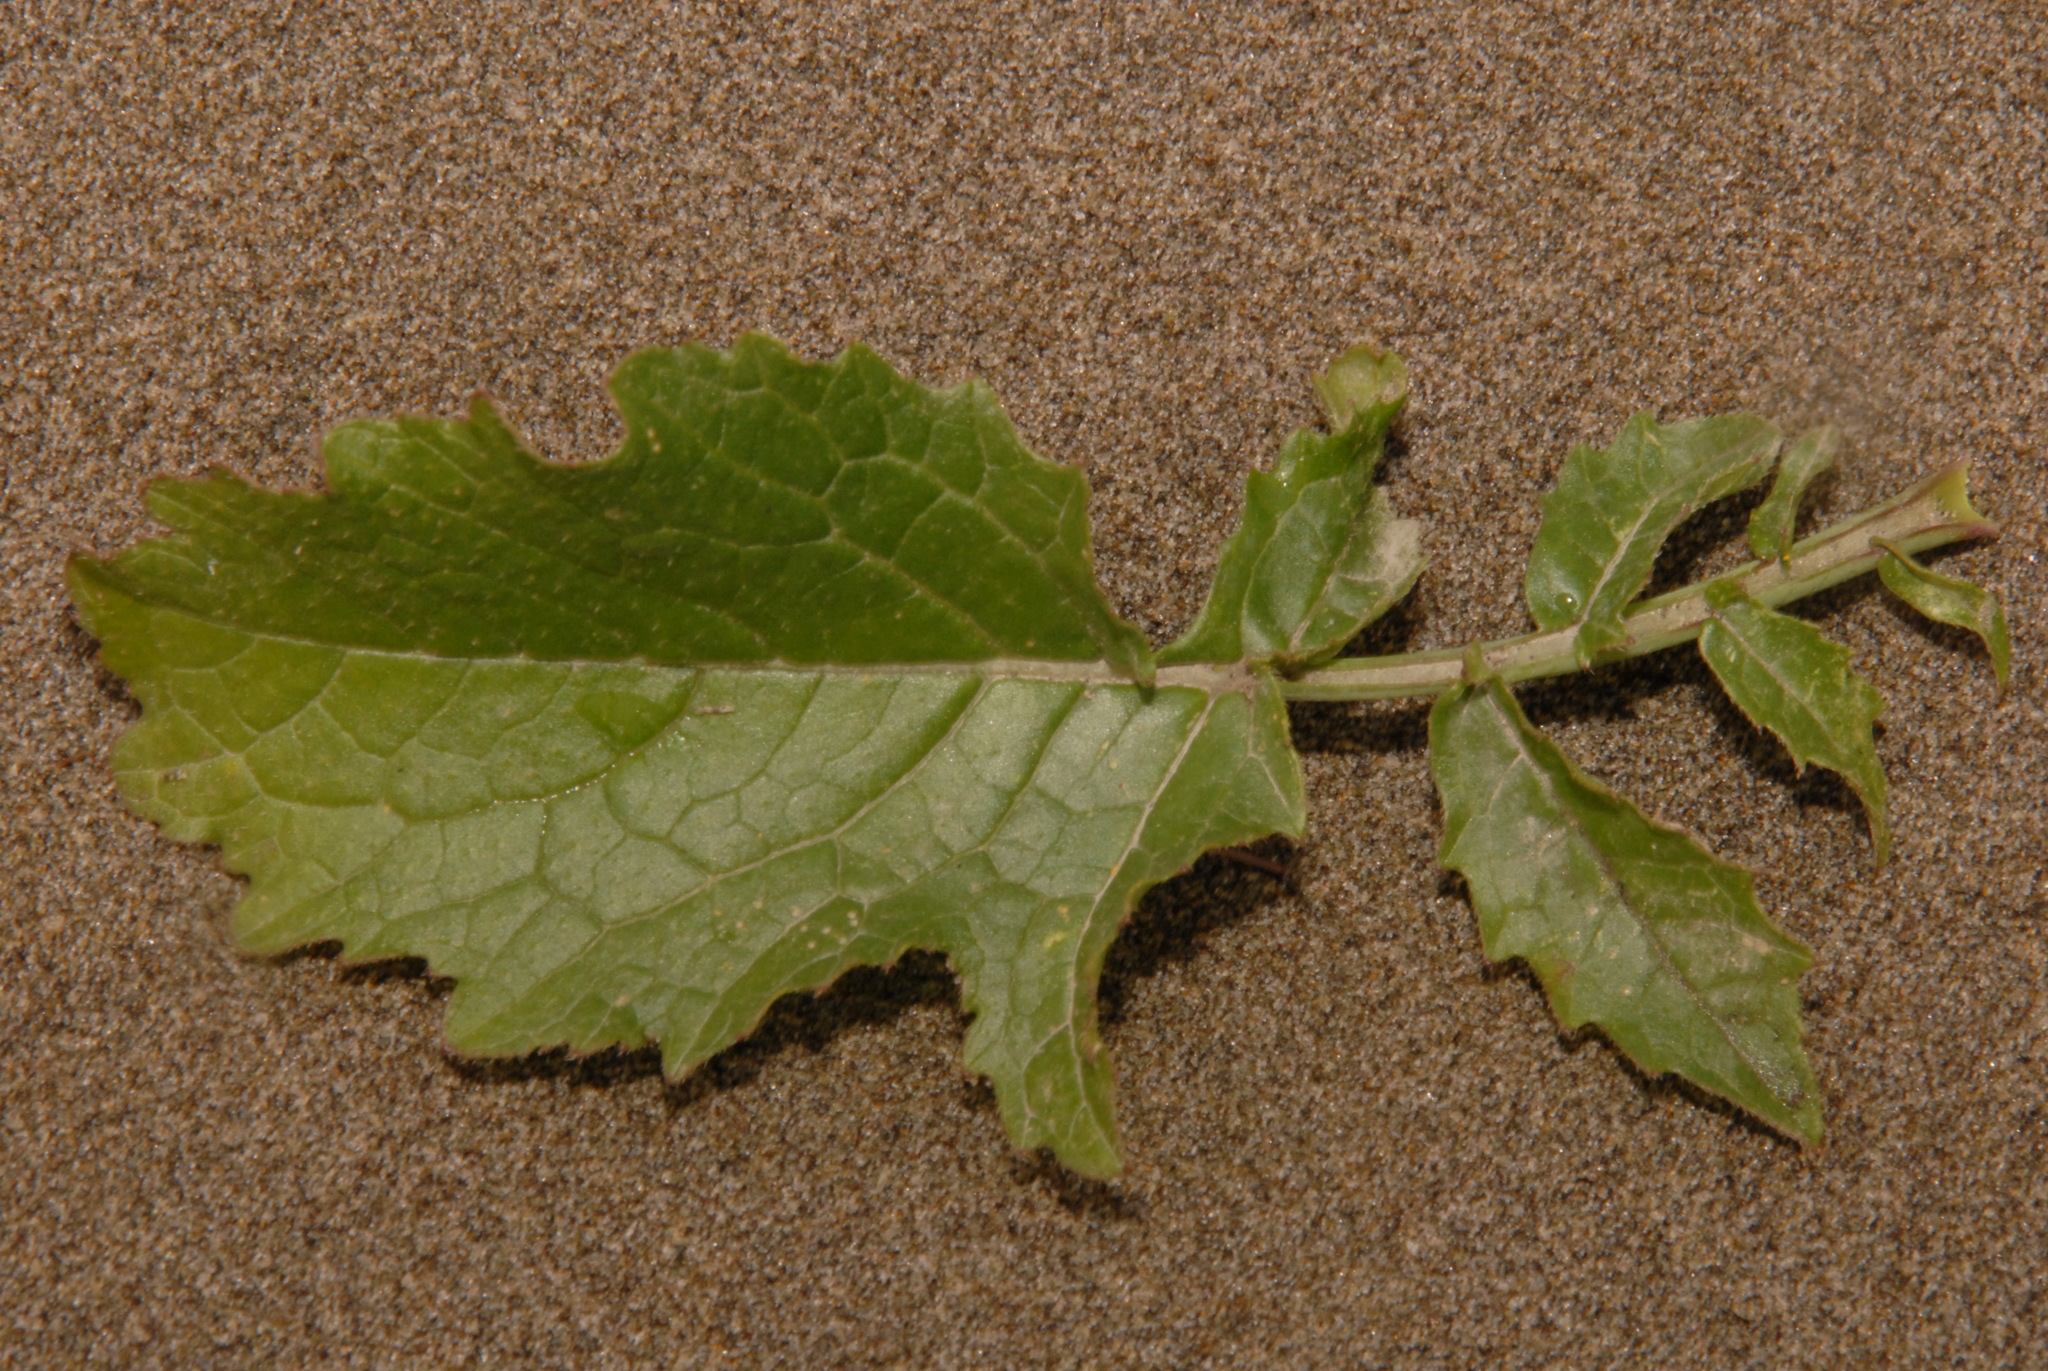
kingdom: Plantae
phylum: Tracheophyta
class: Magnoliopsida
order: Brassicales
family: Brassicaceae
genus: Raphanus
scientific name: Raphanus raphanistrum
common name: Wild radish
